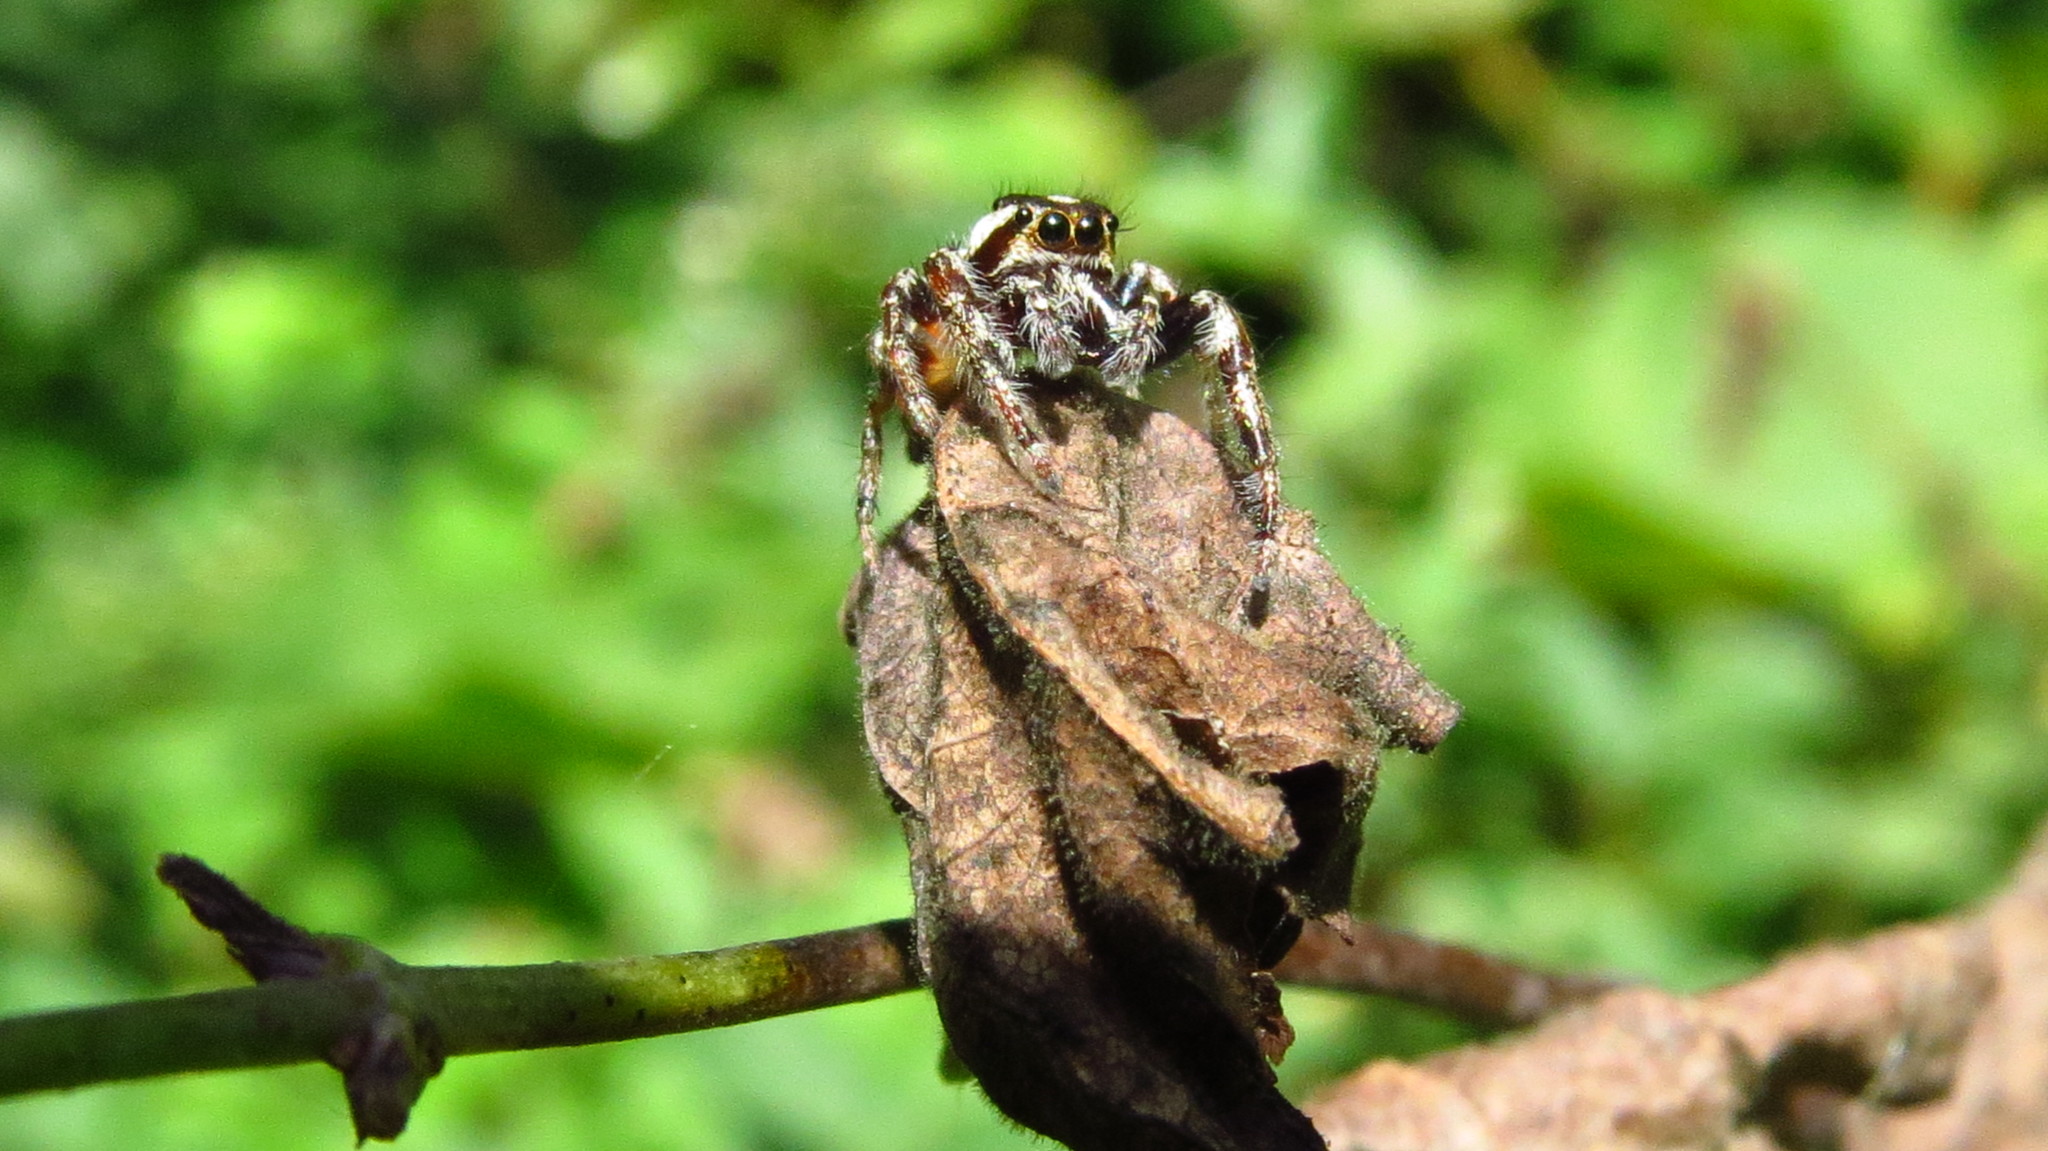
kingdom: Animalia
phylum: Arthropoda
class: Arachnida
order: Araneae
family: Salticidae
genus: Eris
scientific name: Eris flava
